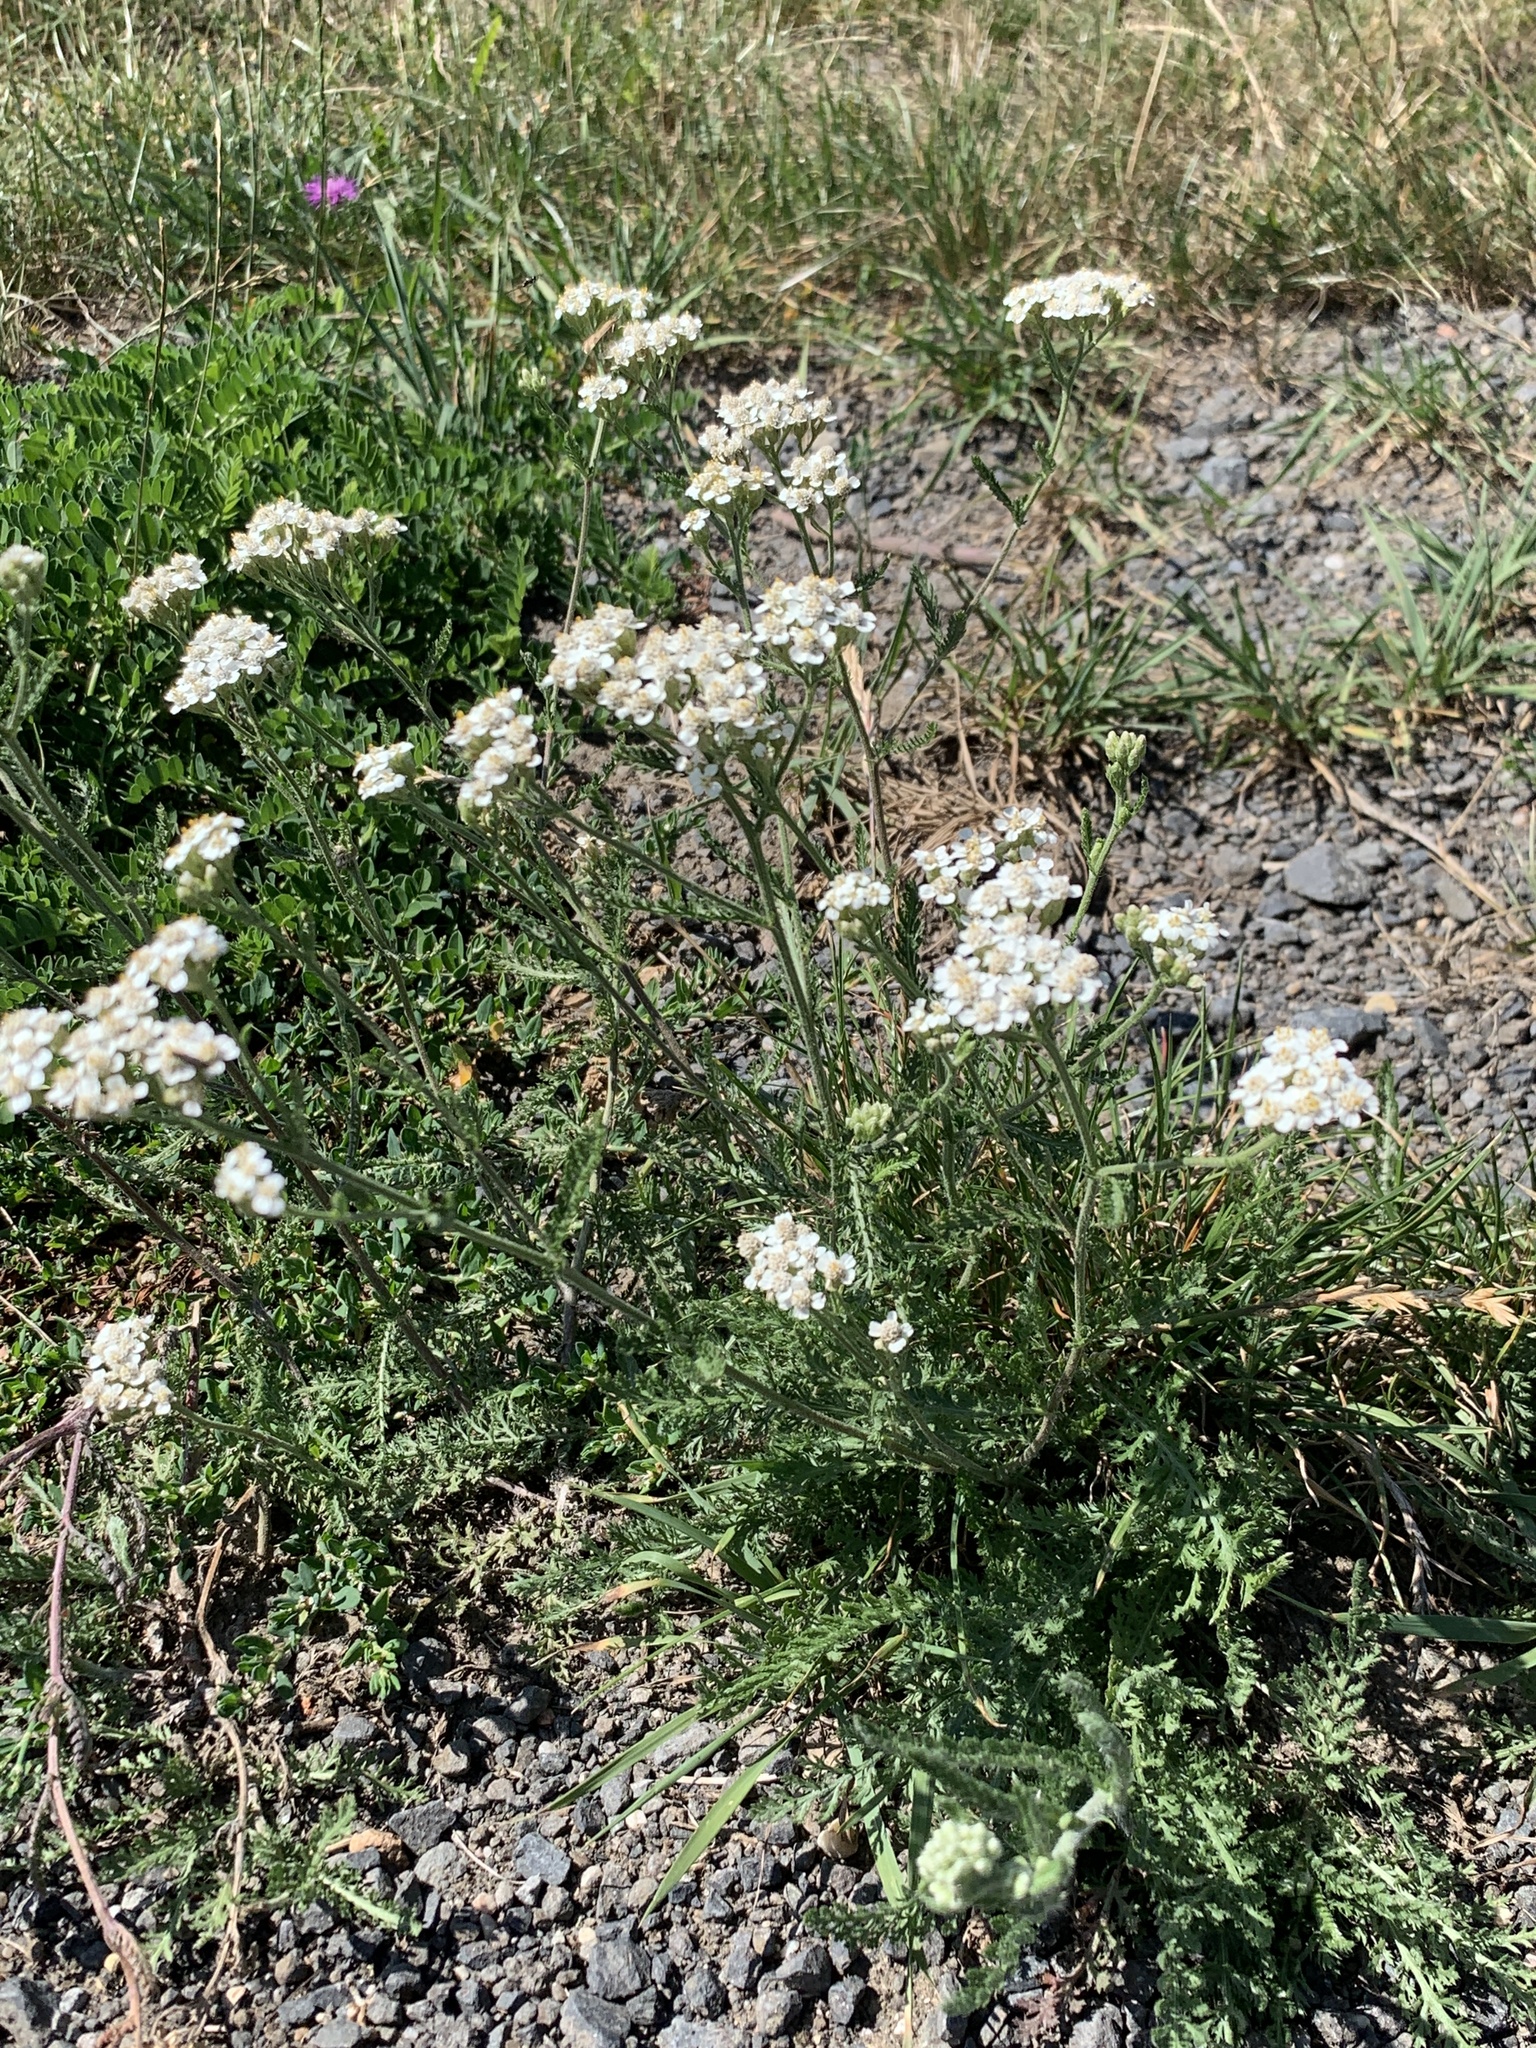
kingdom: Plantae
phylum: Tracheophyta
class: Magnoliopsida
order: Asterales
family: Asteraceae
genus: Achillea
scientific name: Achillea millefolium
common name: Yarrow
